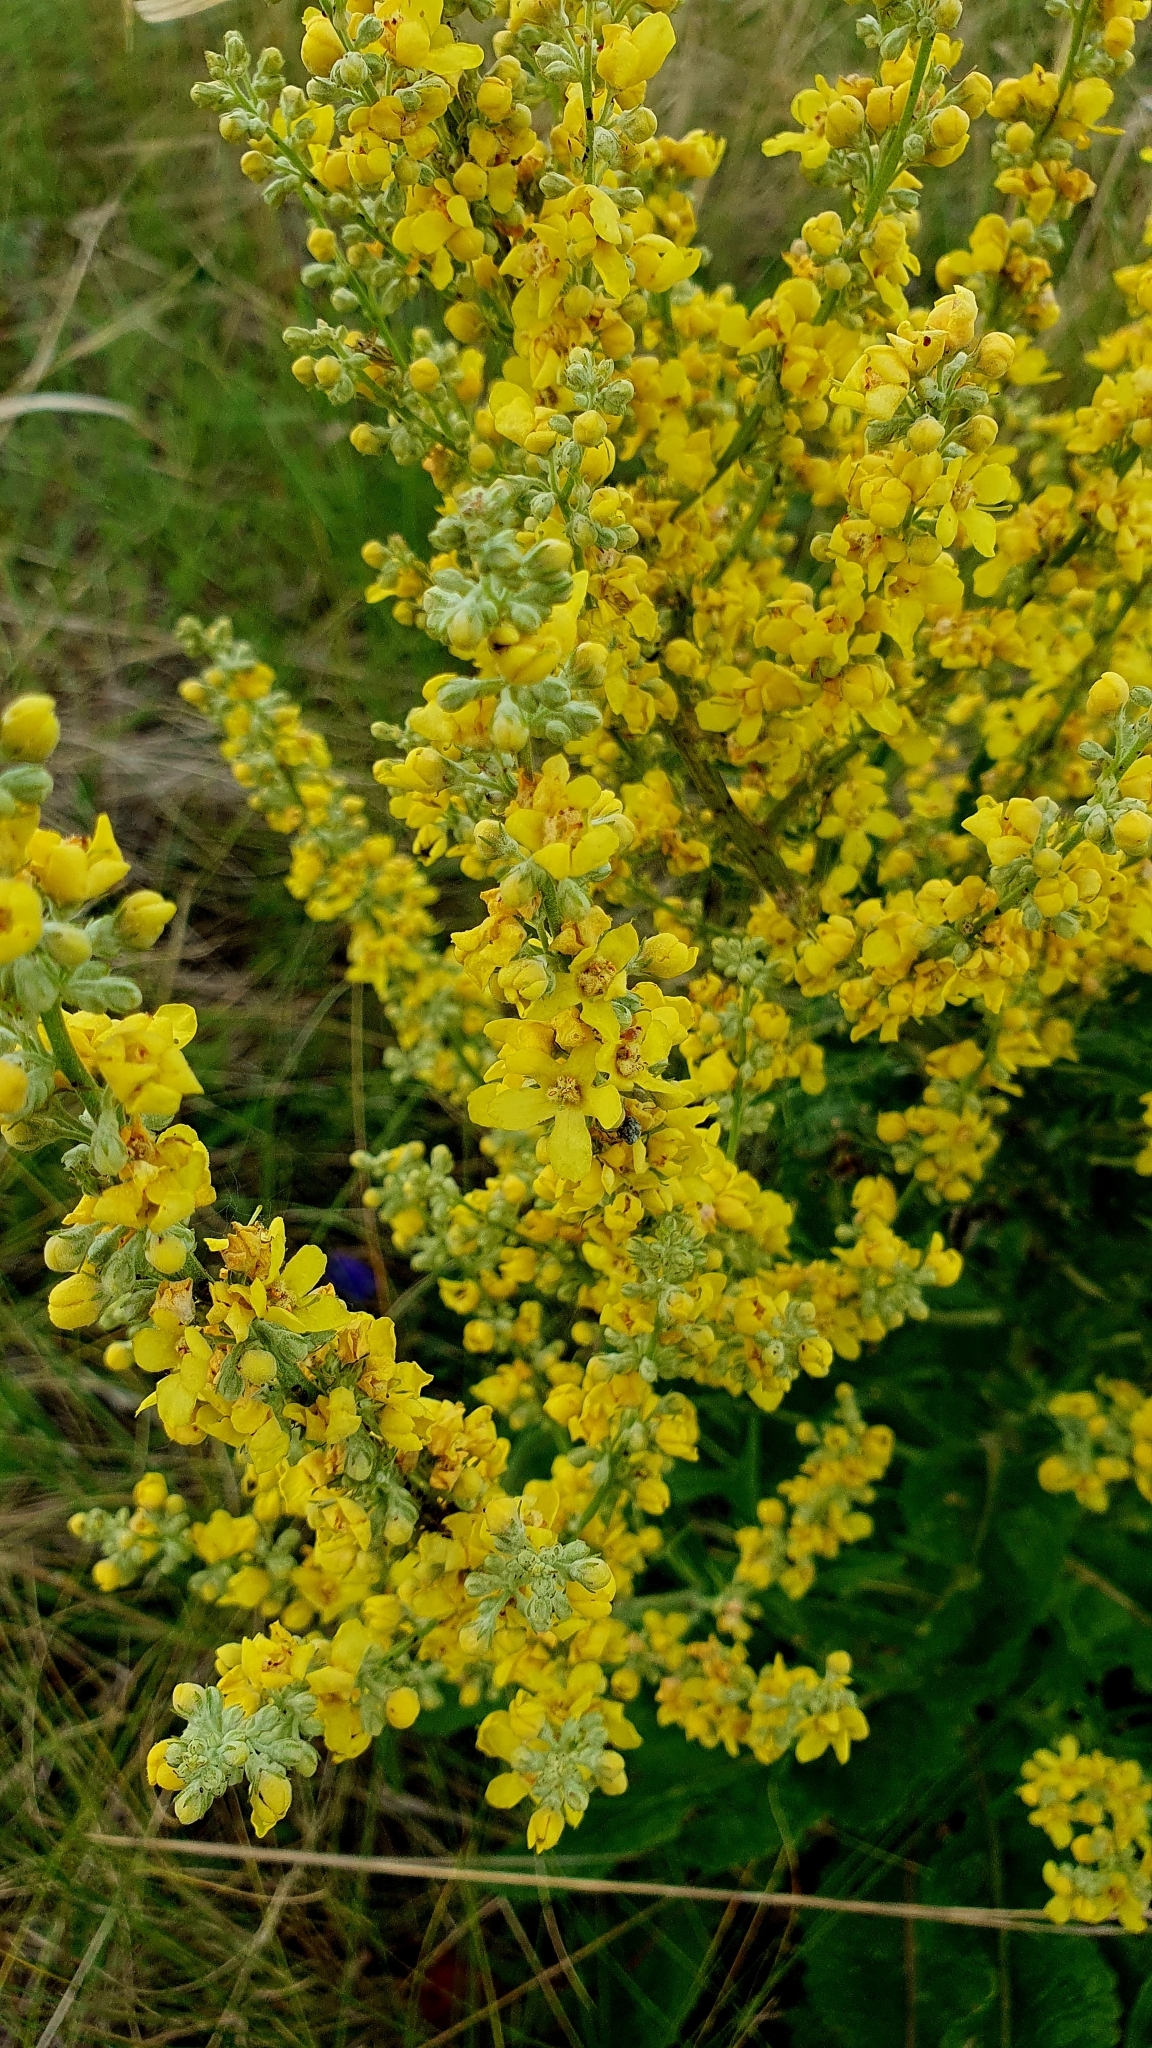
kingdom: Plantae
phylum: Tracheophyta
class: Magnoliopsida
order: Lamiales
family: Scrophulariaceae
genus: Verbascum
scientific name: Verbascum lychnitis
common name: White mullein
